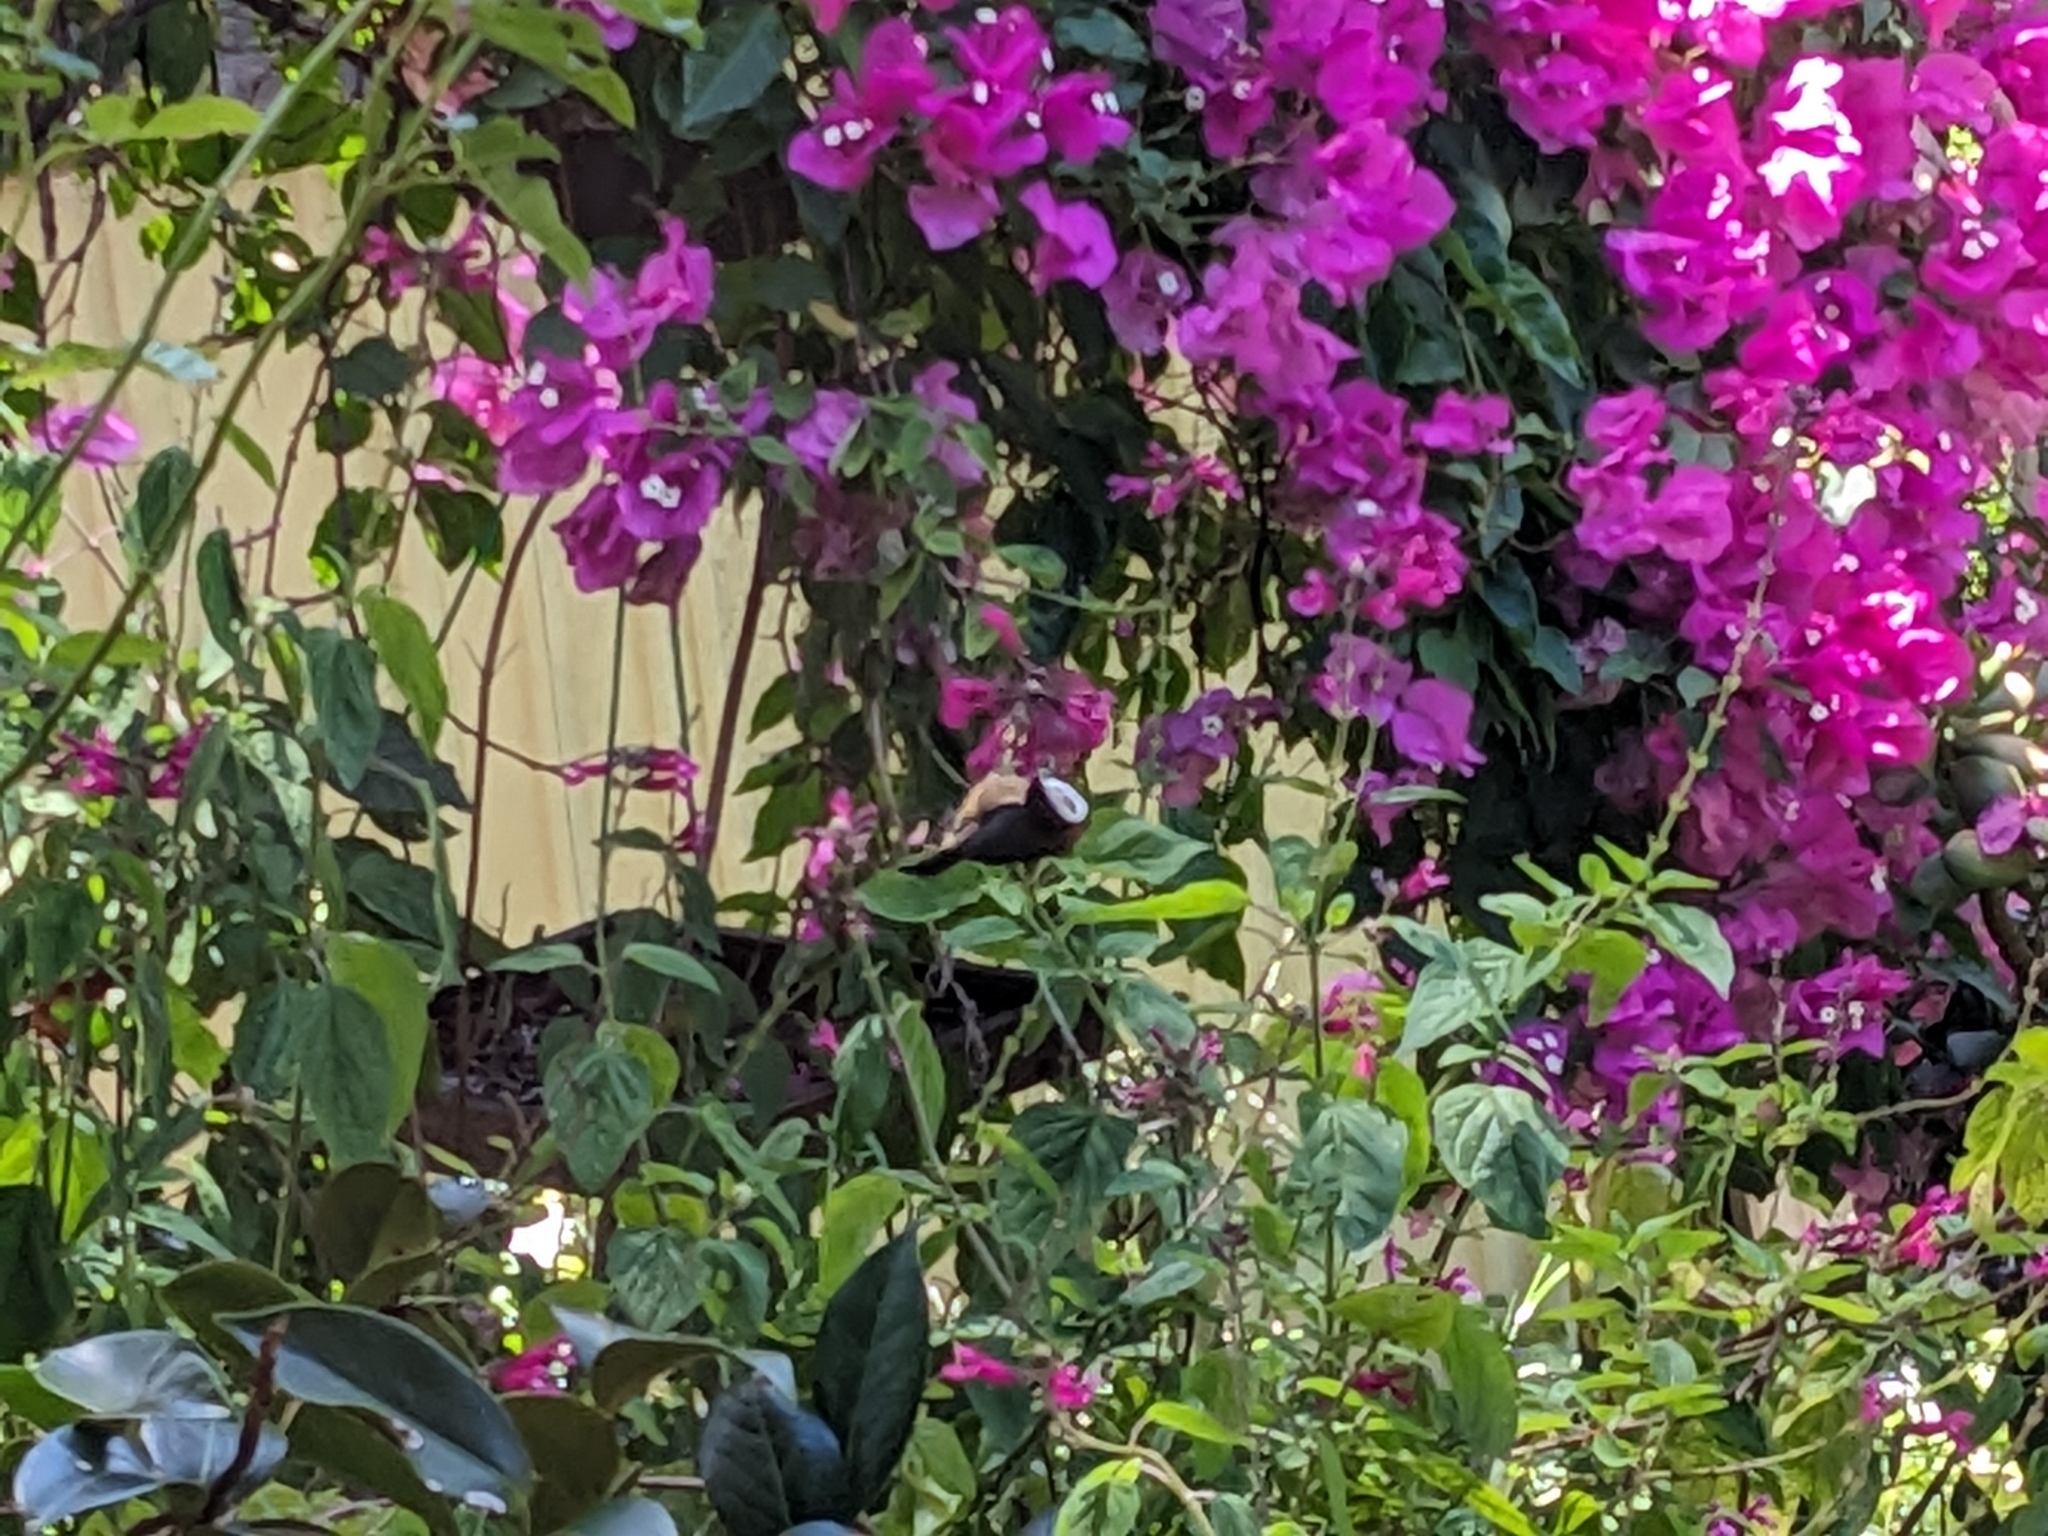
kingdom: Animalia
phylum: Chordata
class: Aves
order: Passeriformes
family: Meliphagidae
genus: Acanthorhynchus
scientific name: Acanthorhynchus tenuirostris
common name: Eastern spinebill
